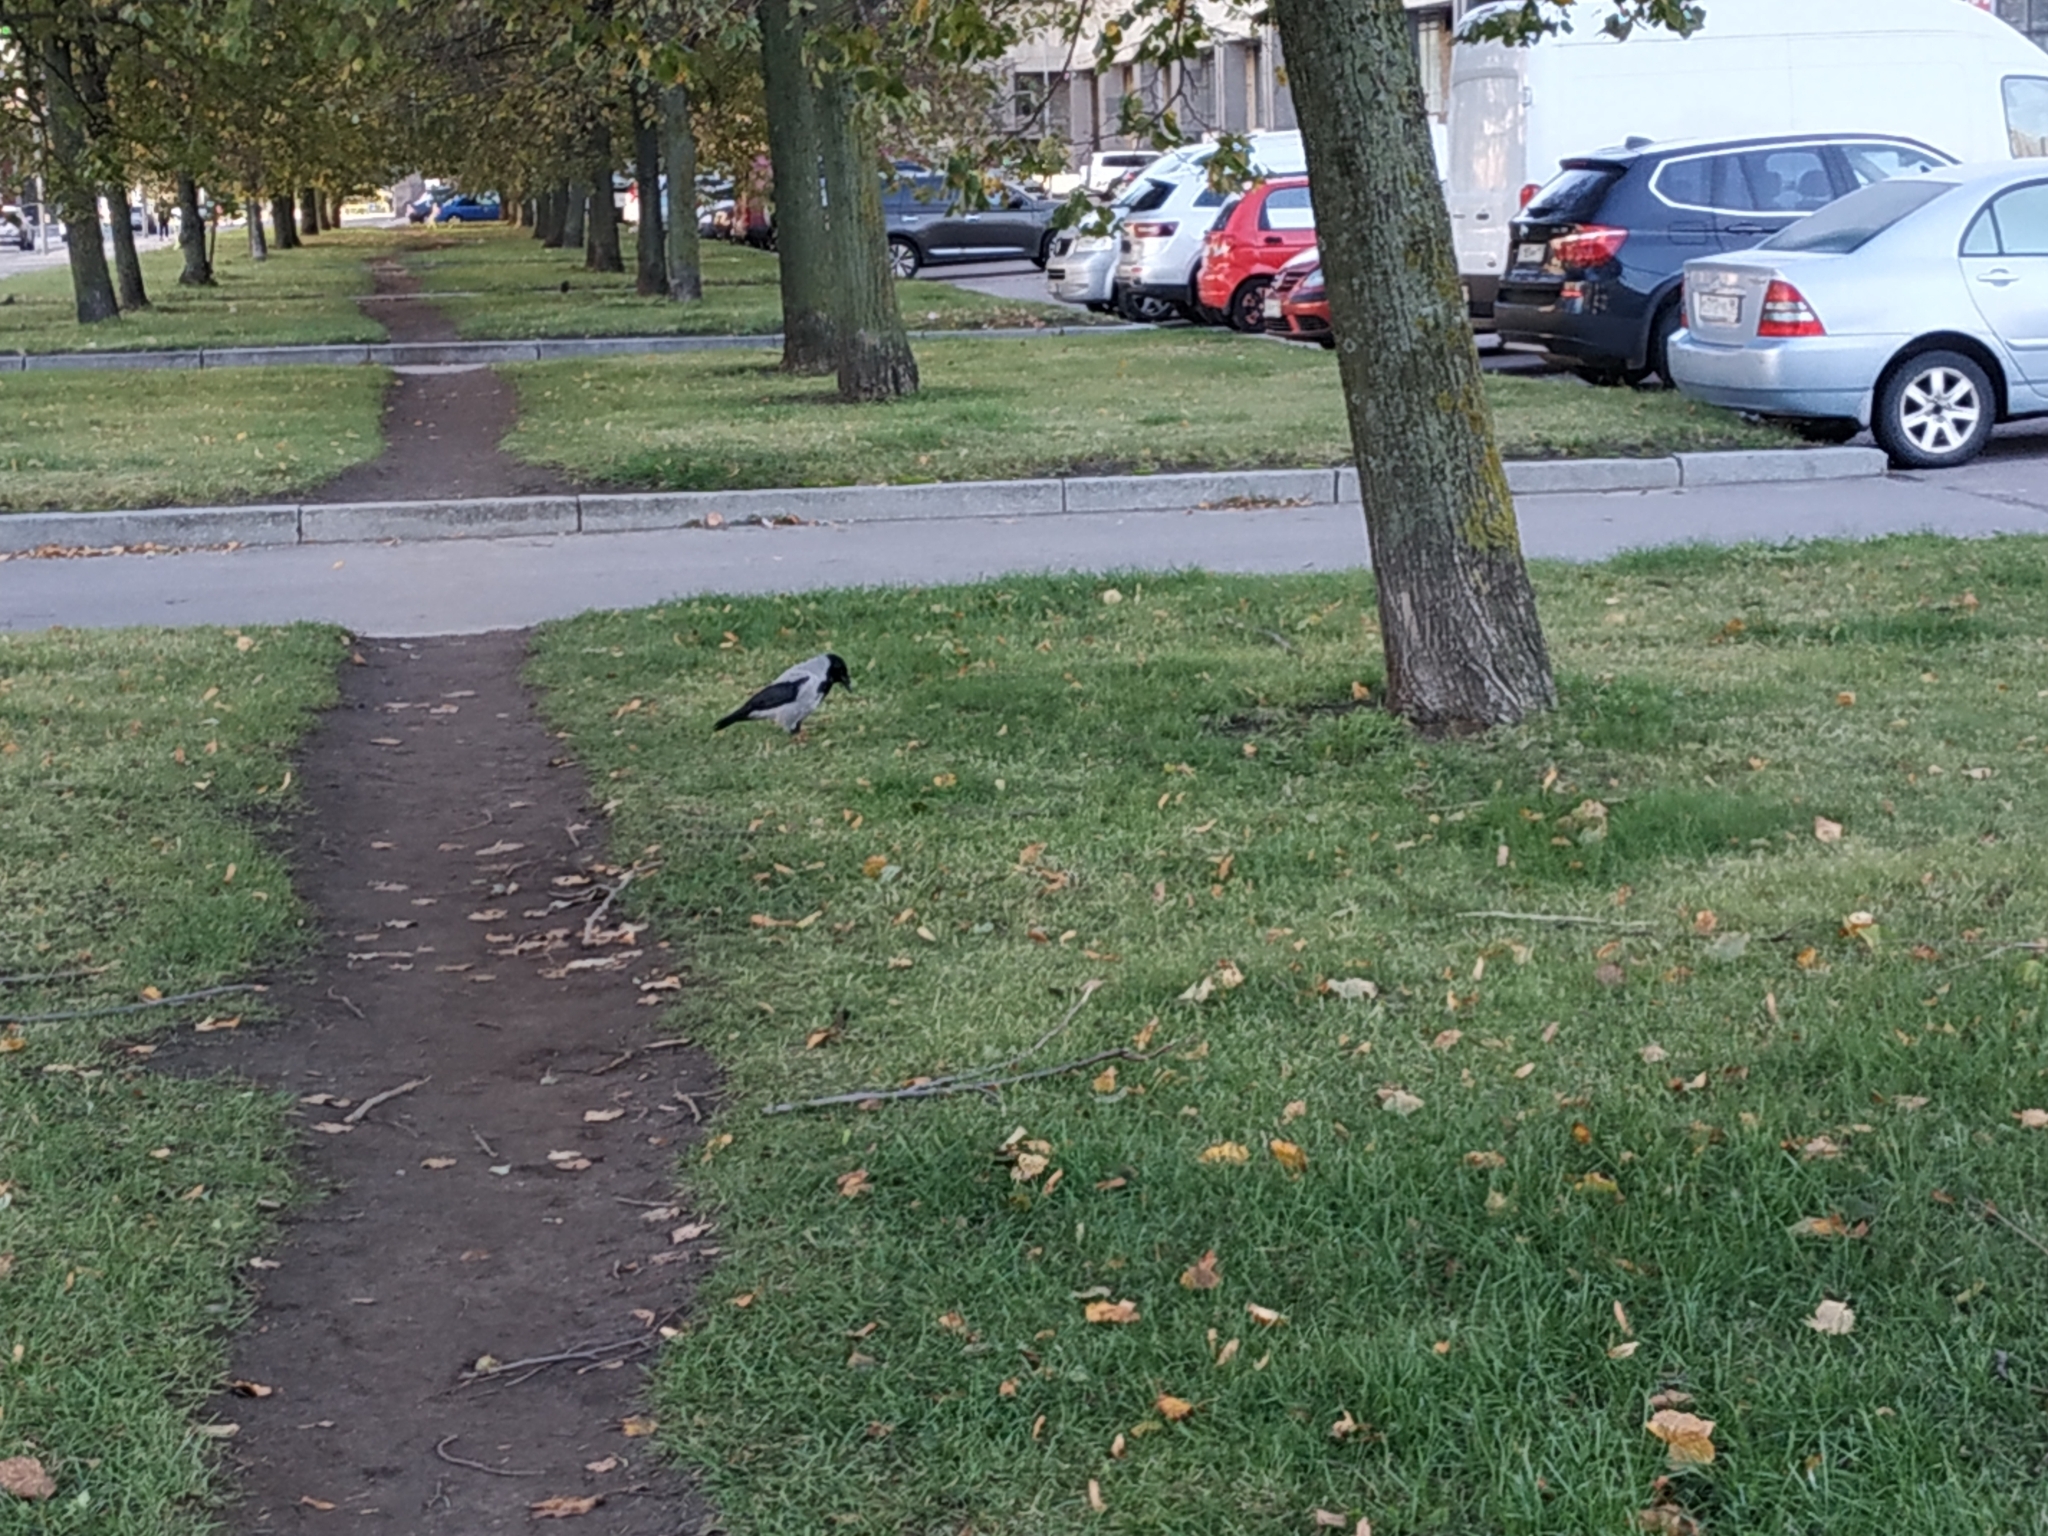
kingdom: Animalia
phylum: Chordata
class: Aves
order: Passeriformes
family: Corvidae
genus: Corvus
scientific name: Corvus cornix
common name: Hooded crow
